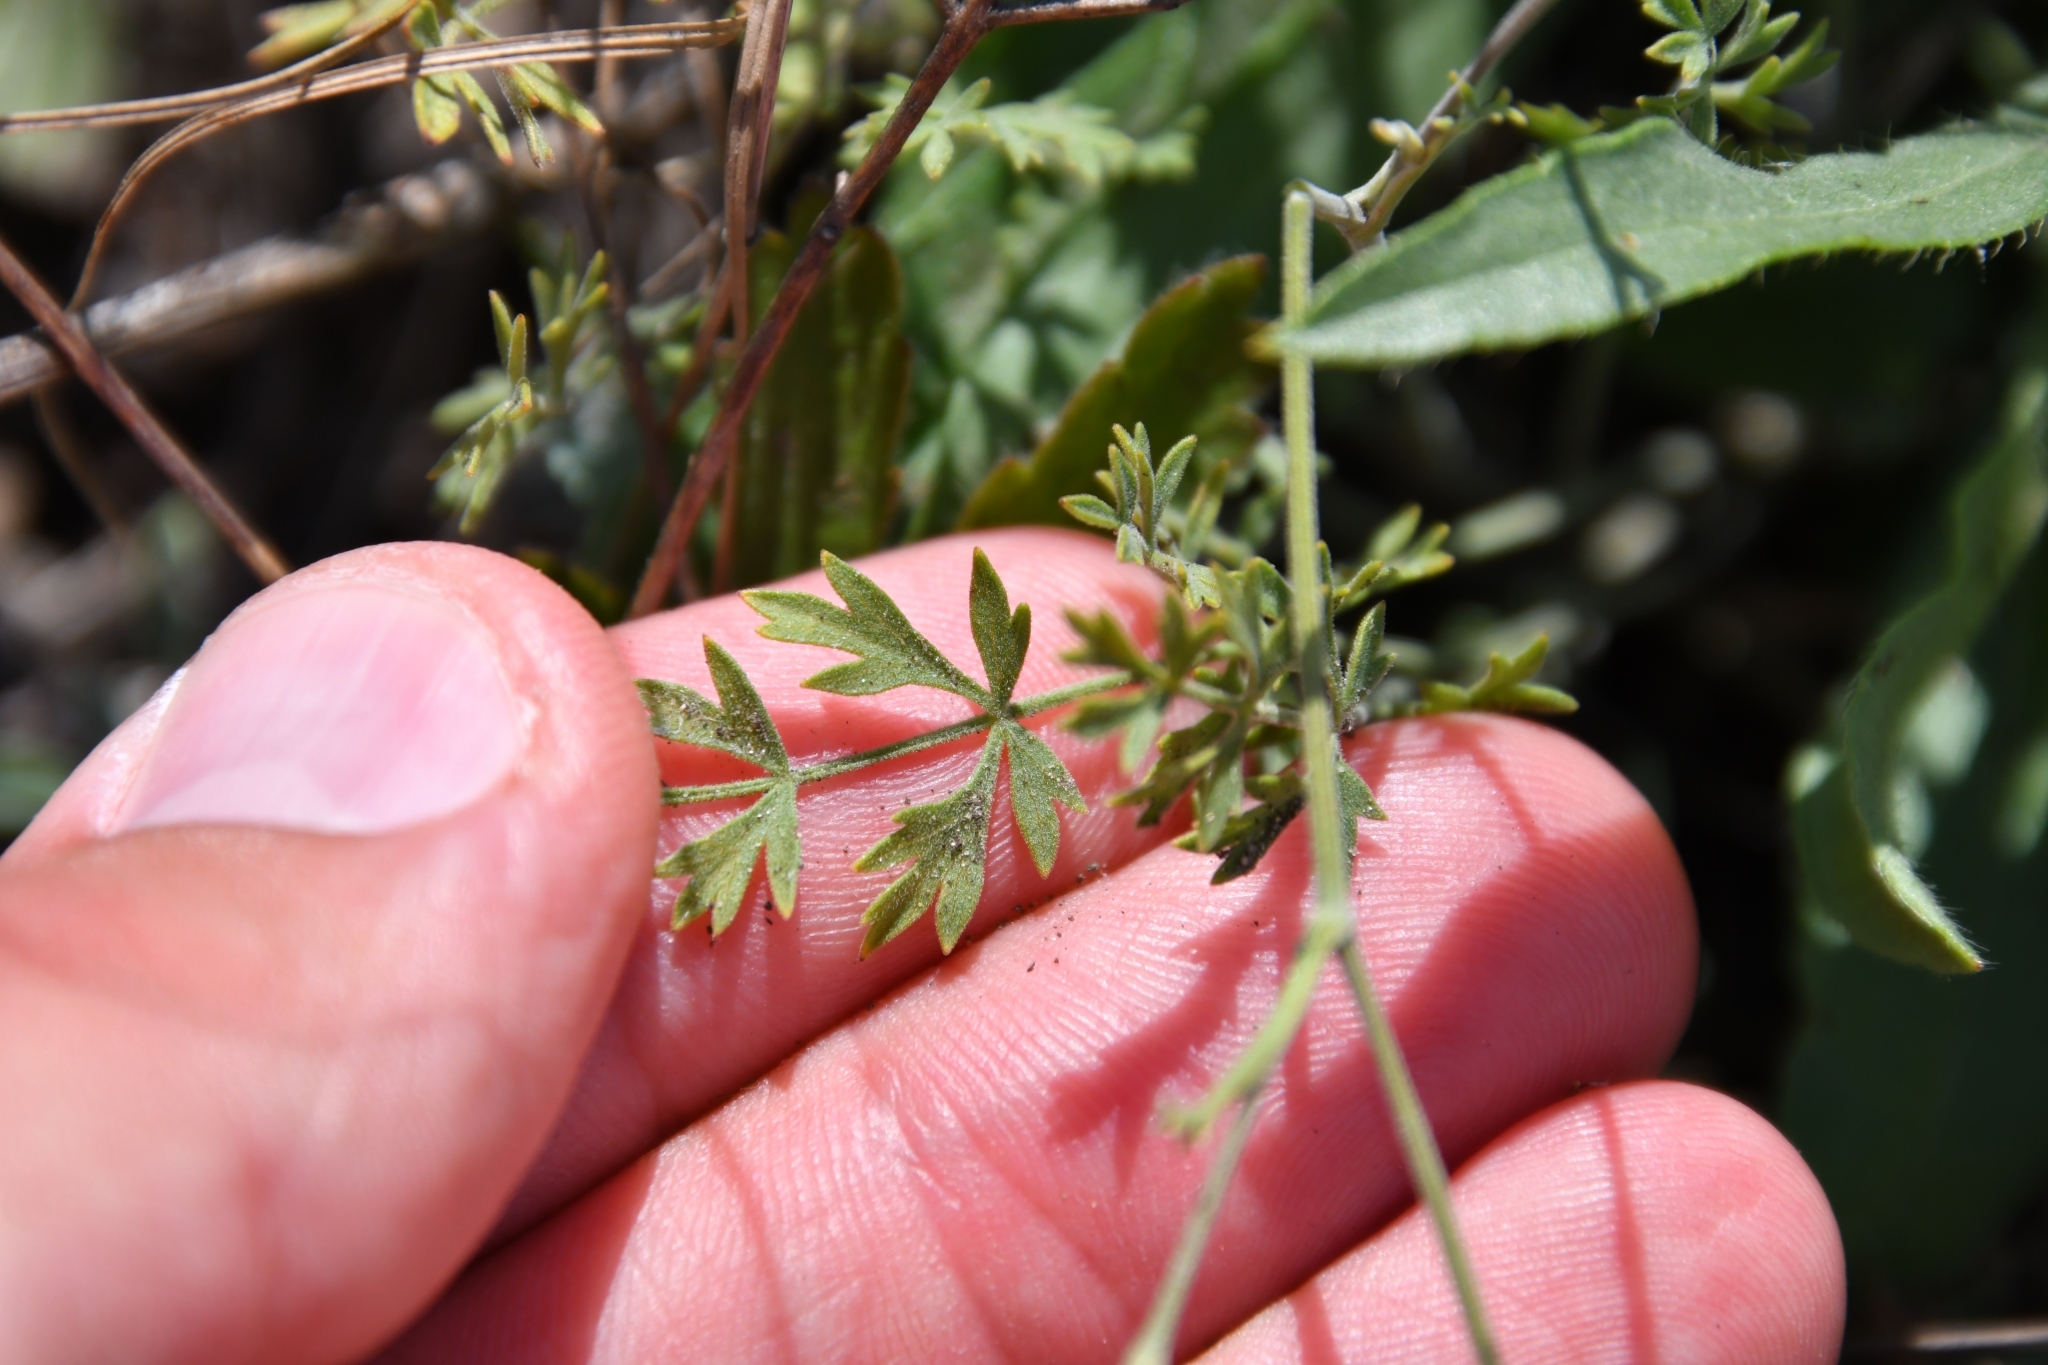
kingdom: Plantae
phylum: Tracheophyta
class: Magnoliopsida
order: Apiales
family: Apiaceae
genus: Pimpinella
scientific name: Pimpinella tragium
